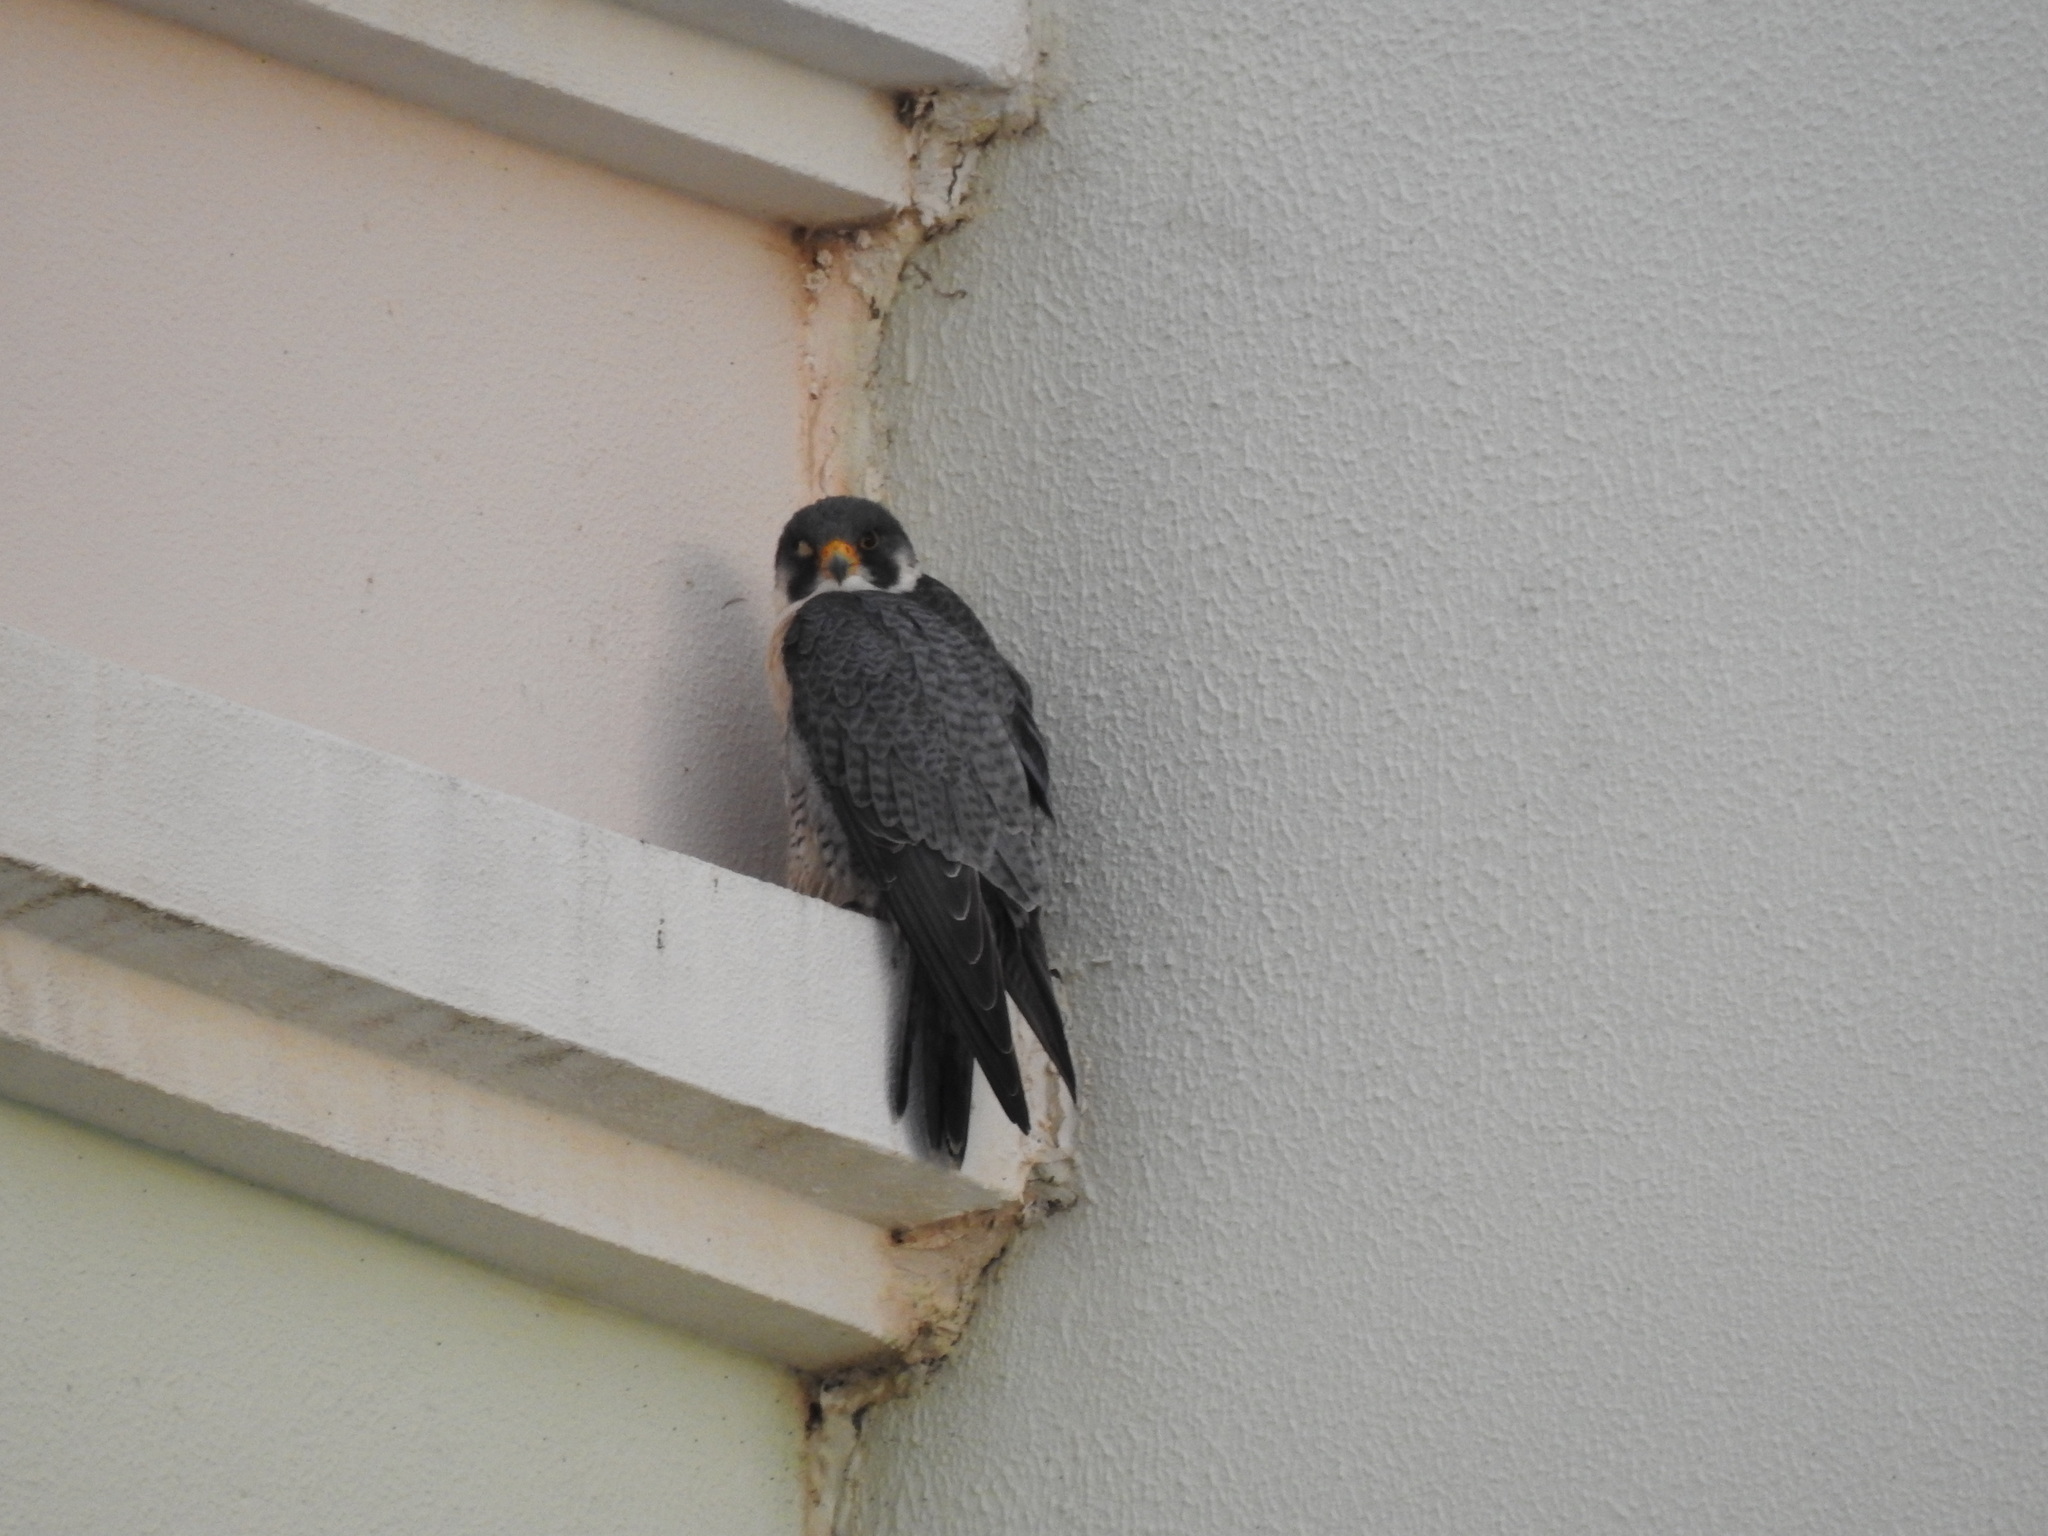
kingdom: Animalia
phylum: Chordata
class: Aves
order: Falconiformes
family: Falconidae
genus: Falco
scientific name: Falco peregrinus
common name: Peregrine falcon
